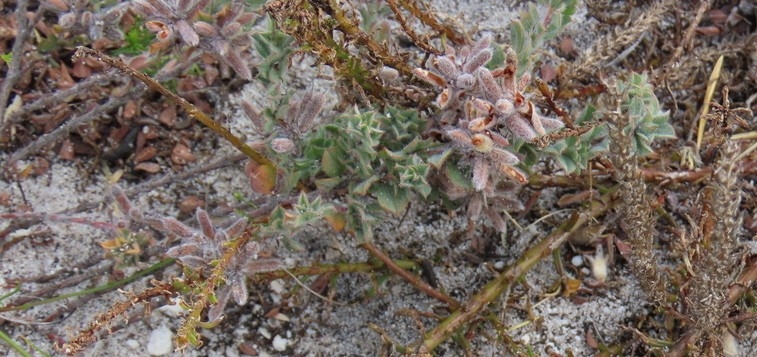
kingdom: Plantae
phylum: Tracheophyta
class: Magnoliopsida
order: Fabales
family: Fabaceae
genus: Indigofera
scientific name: Indigofera glomerata
